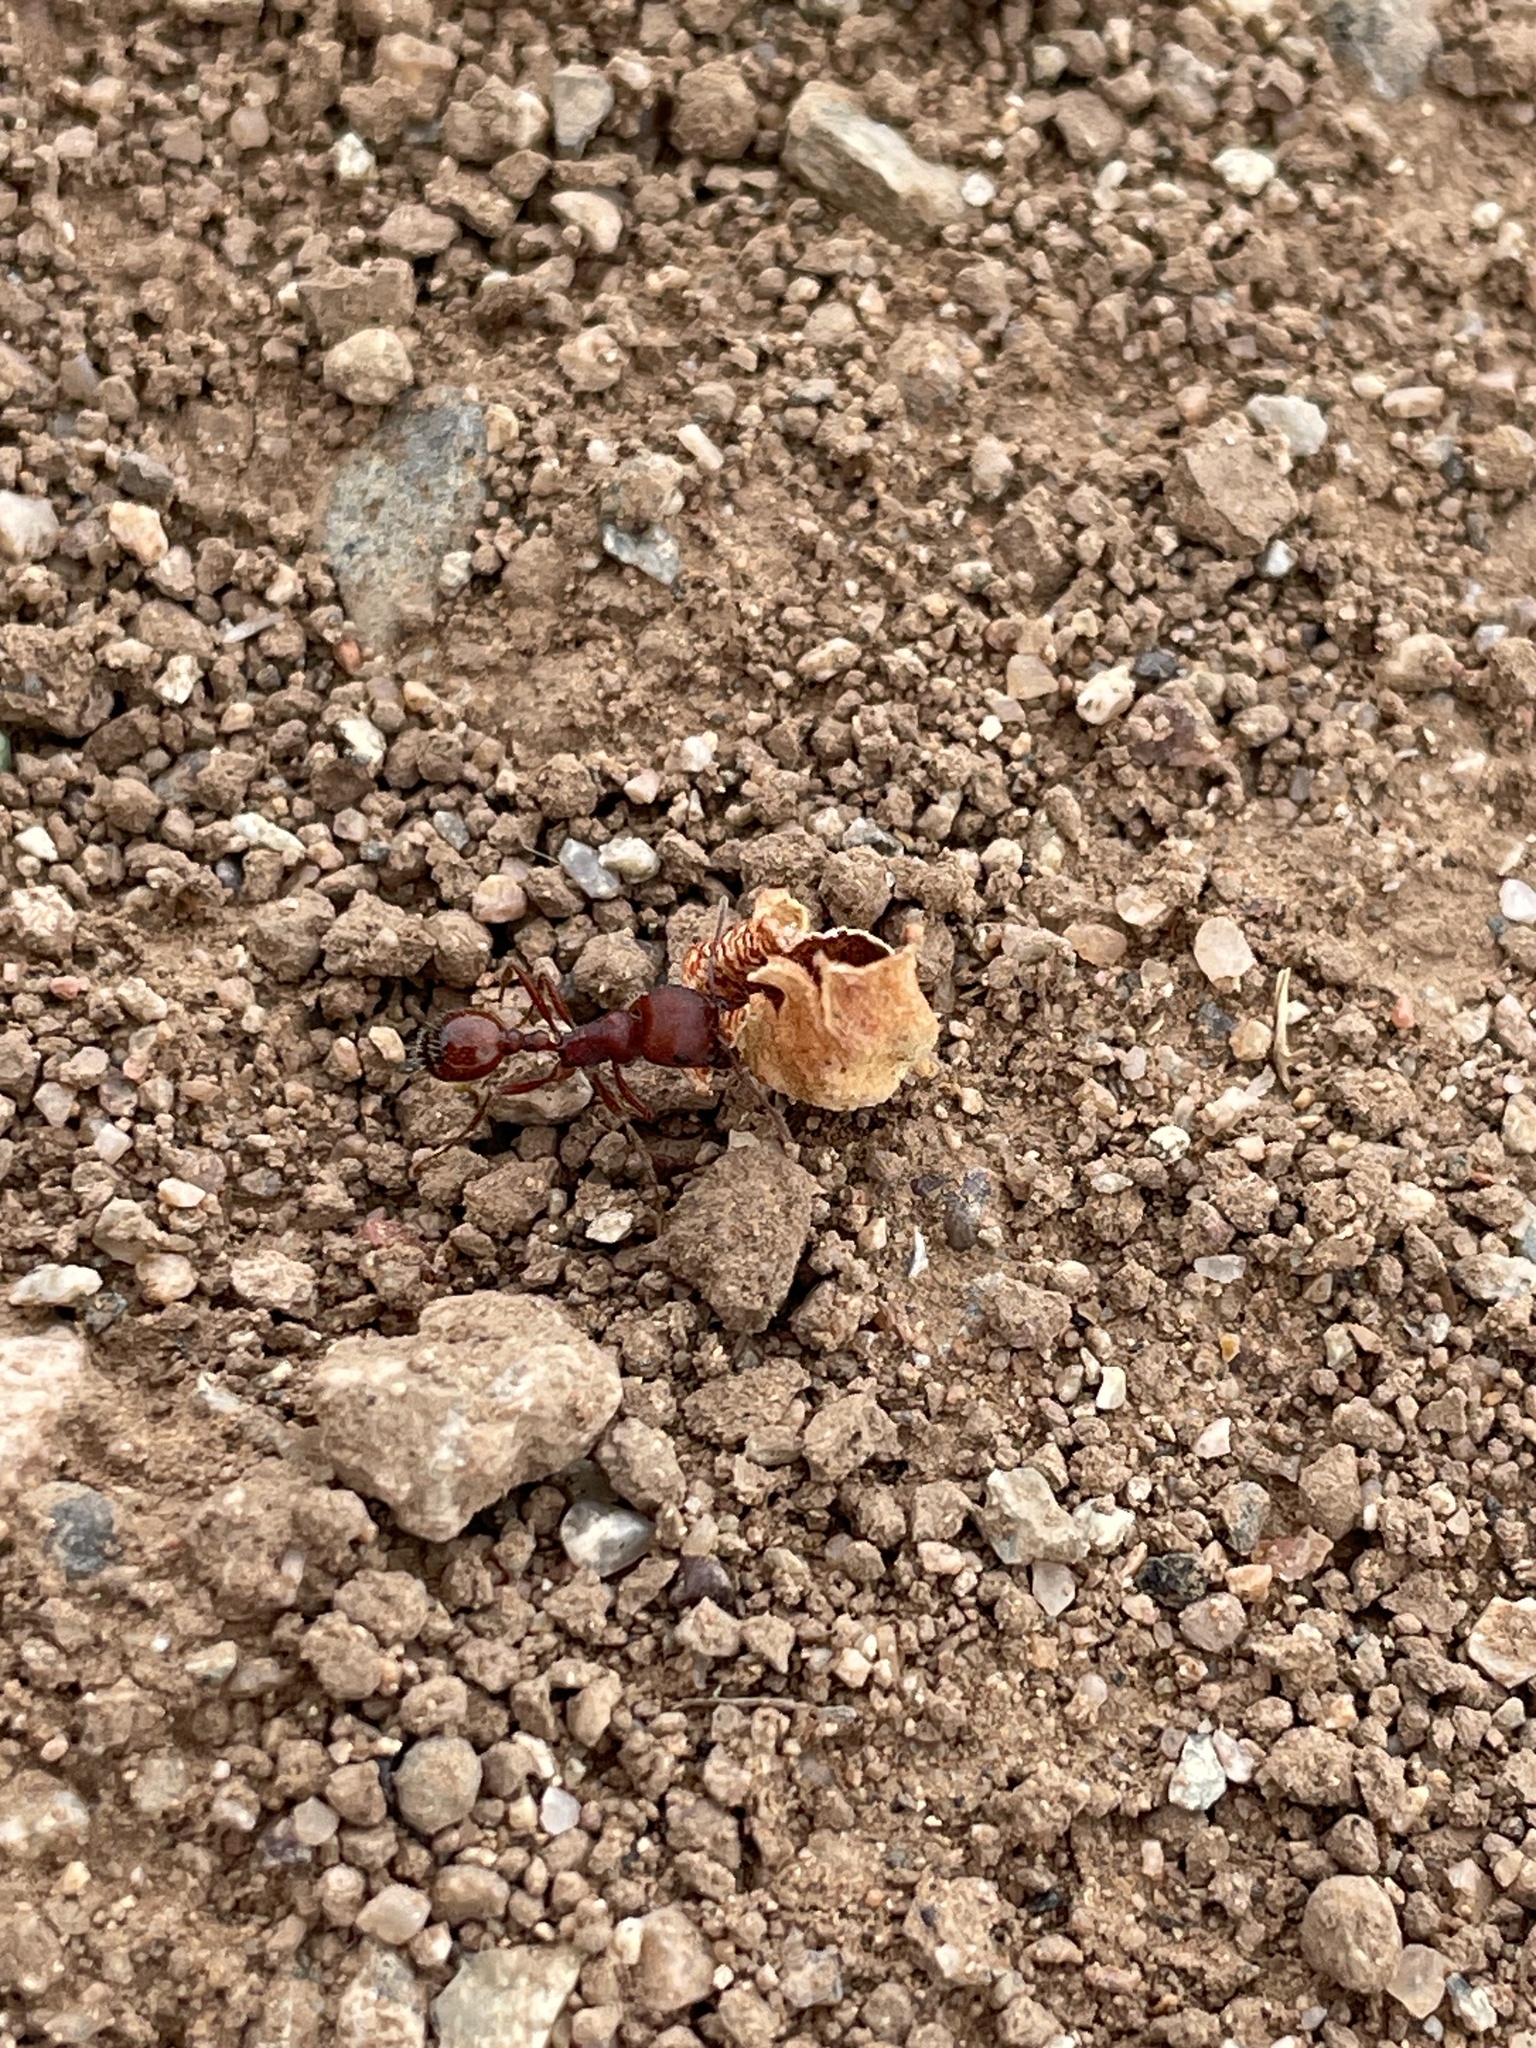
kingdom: Animalia
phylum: Arthropoda
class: Insecta
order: Hymenoptera
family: Formicidae
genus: Pogonomyrmex
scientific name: Pogonomyrmex barbatus
